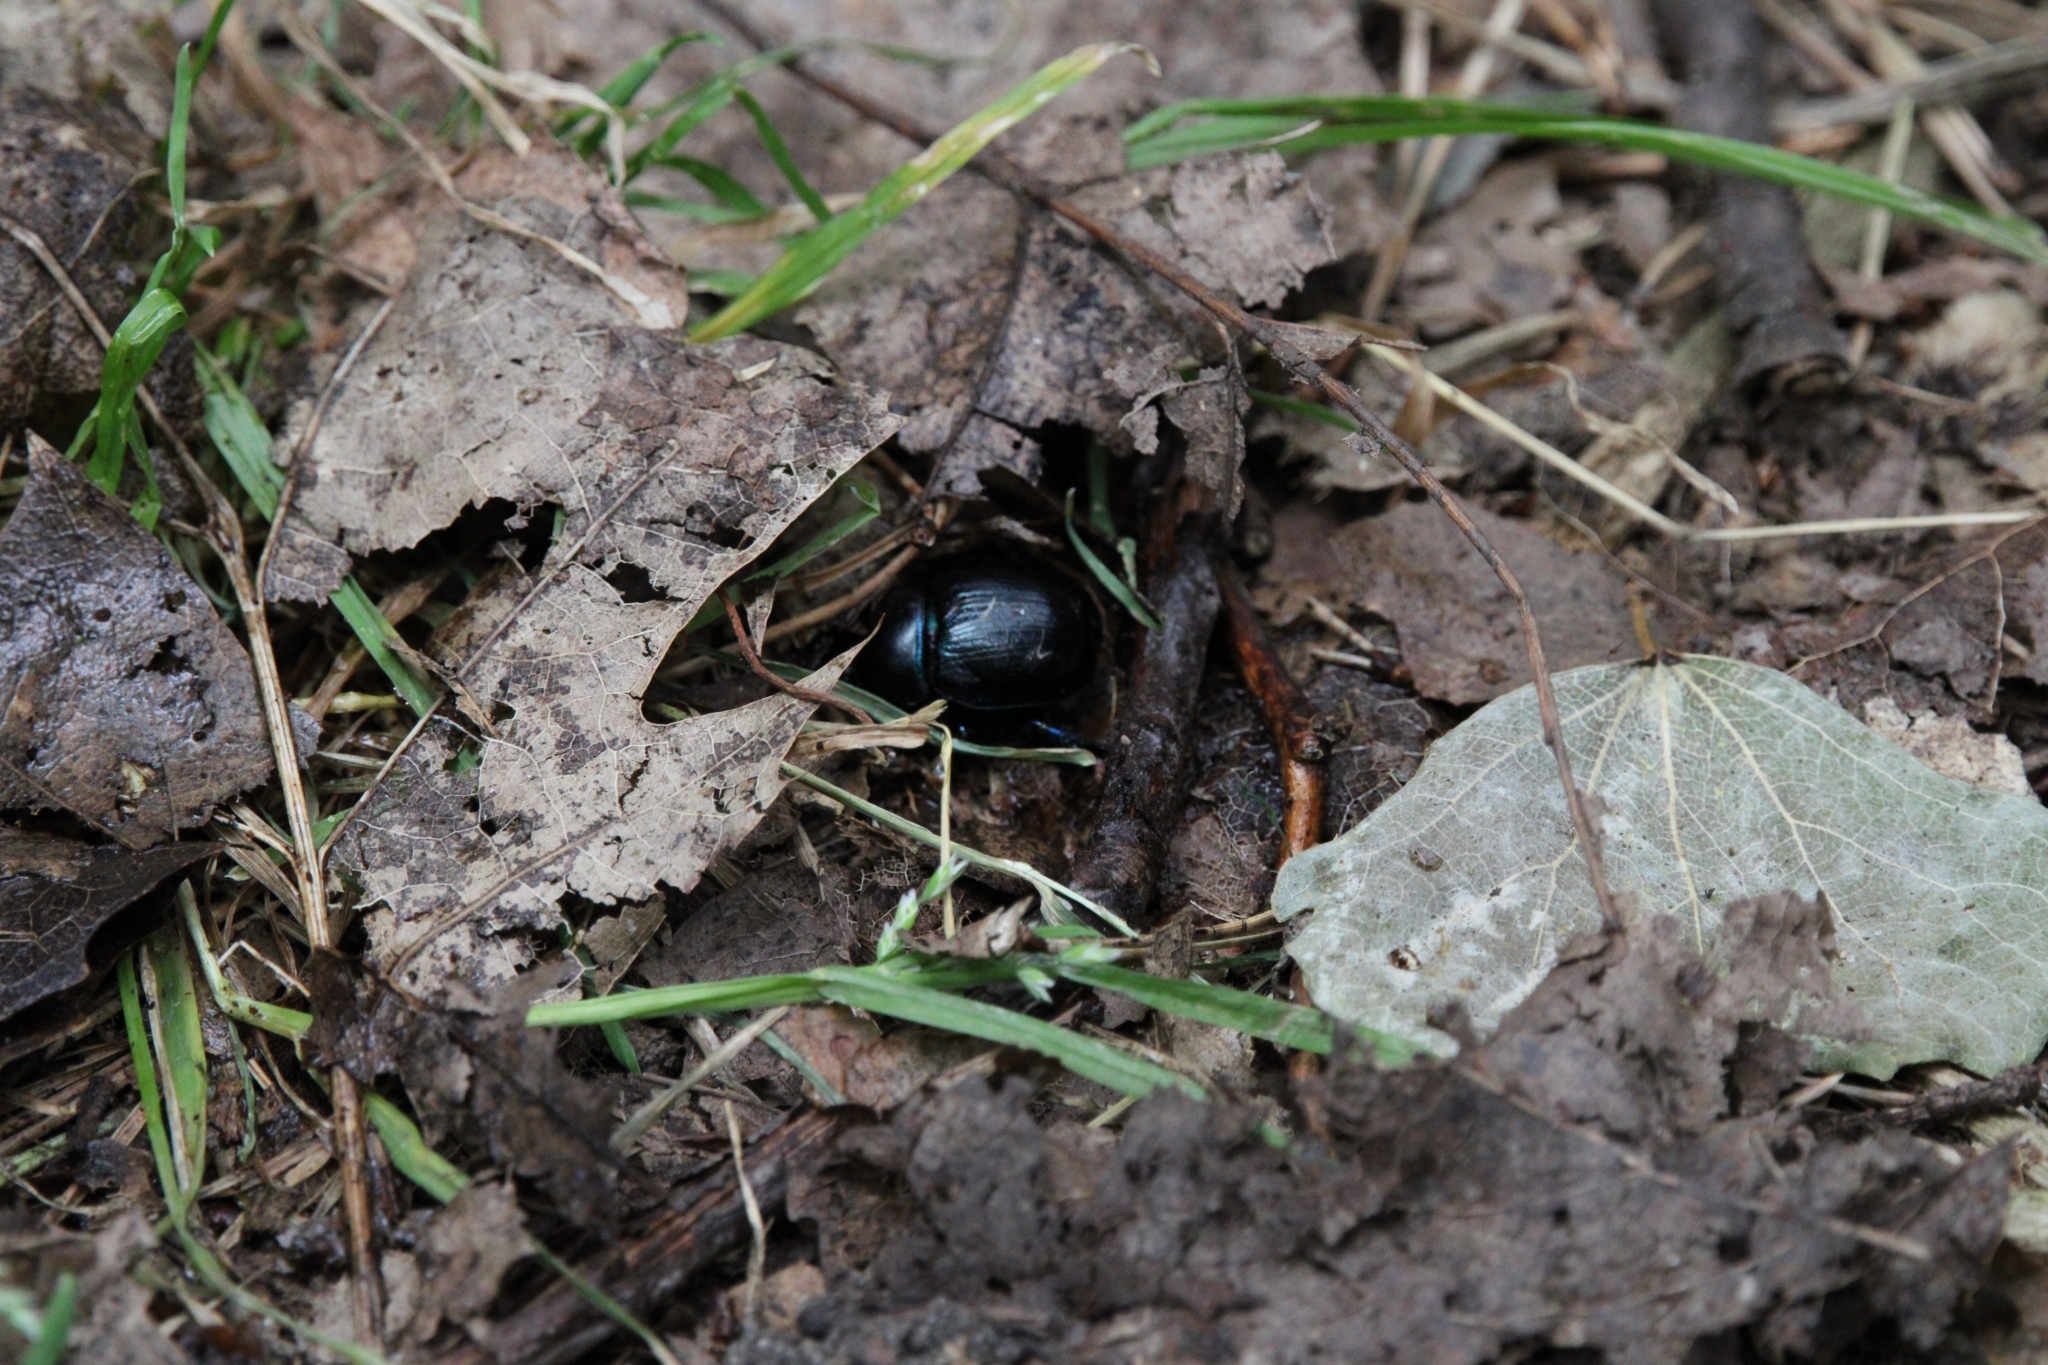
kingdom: Animalia
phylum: Arthropoda
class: Insecta
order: Coleoptera
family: Geotrupidae
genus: Anoplotrupes
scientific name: Anoplotrupes stercorosus
